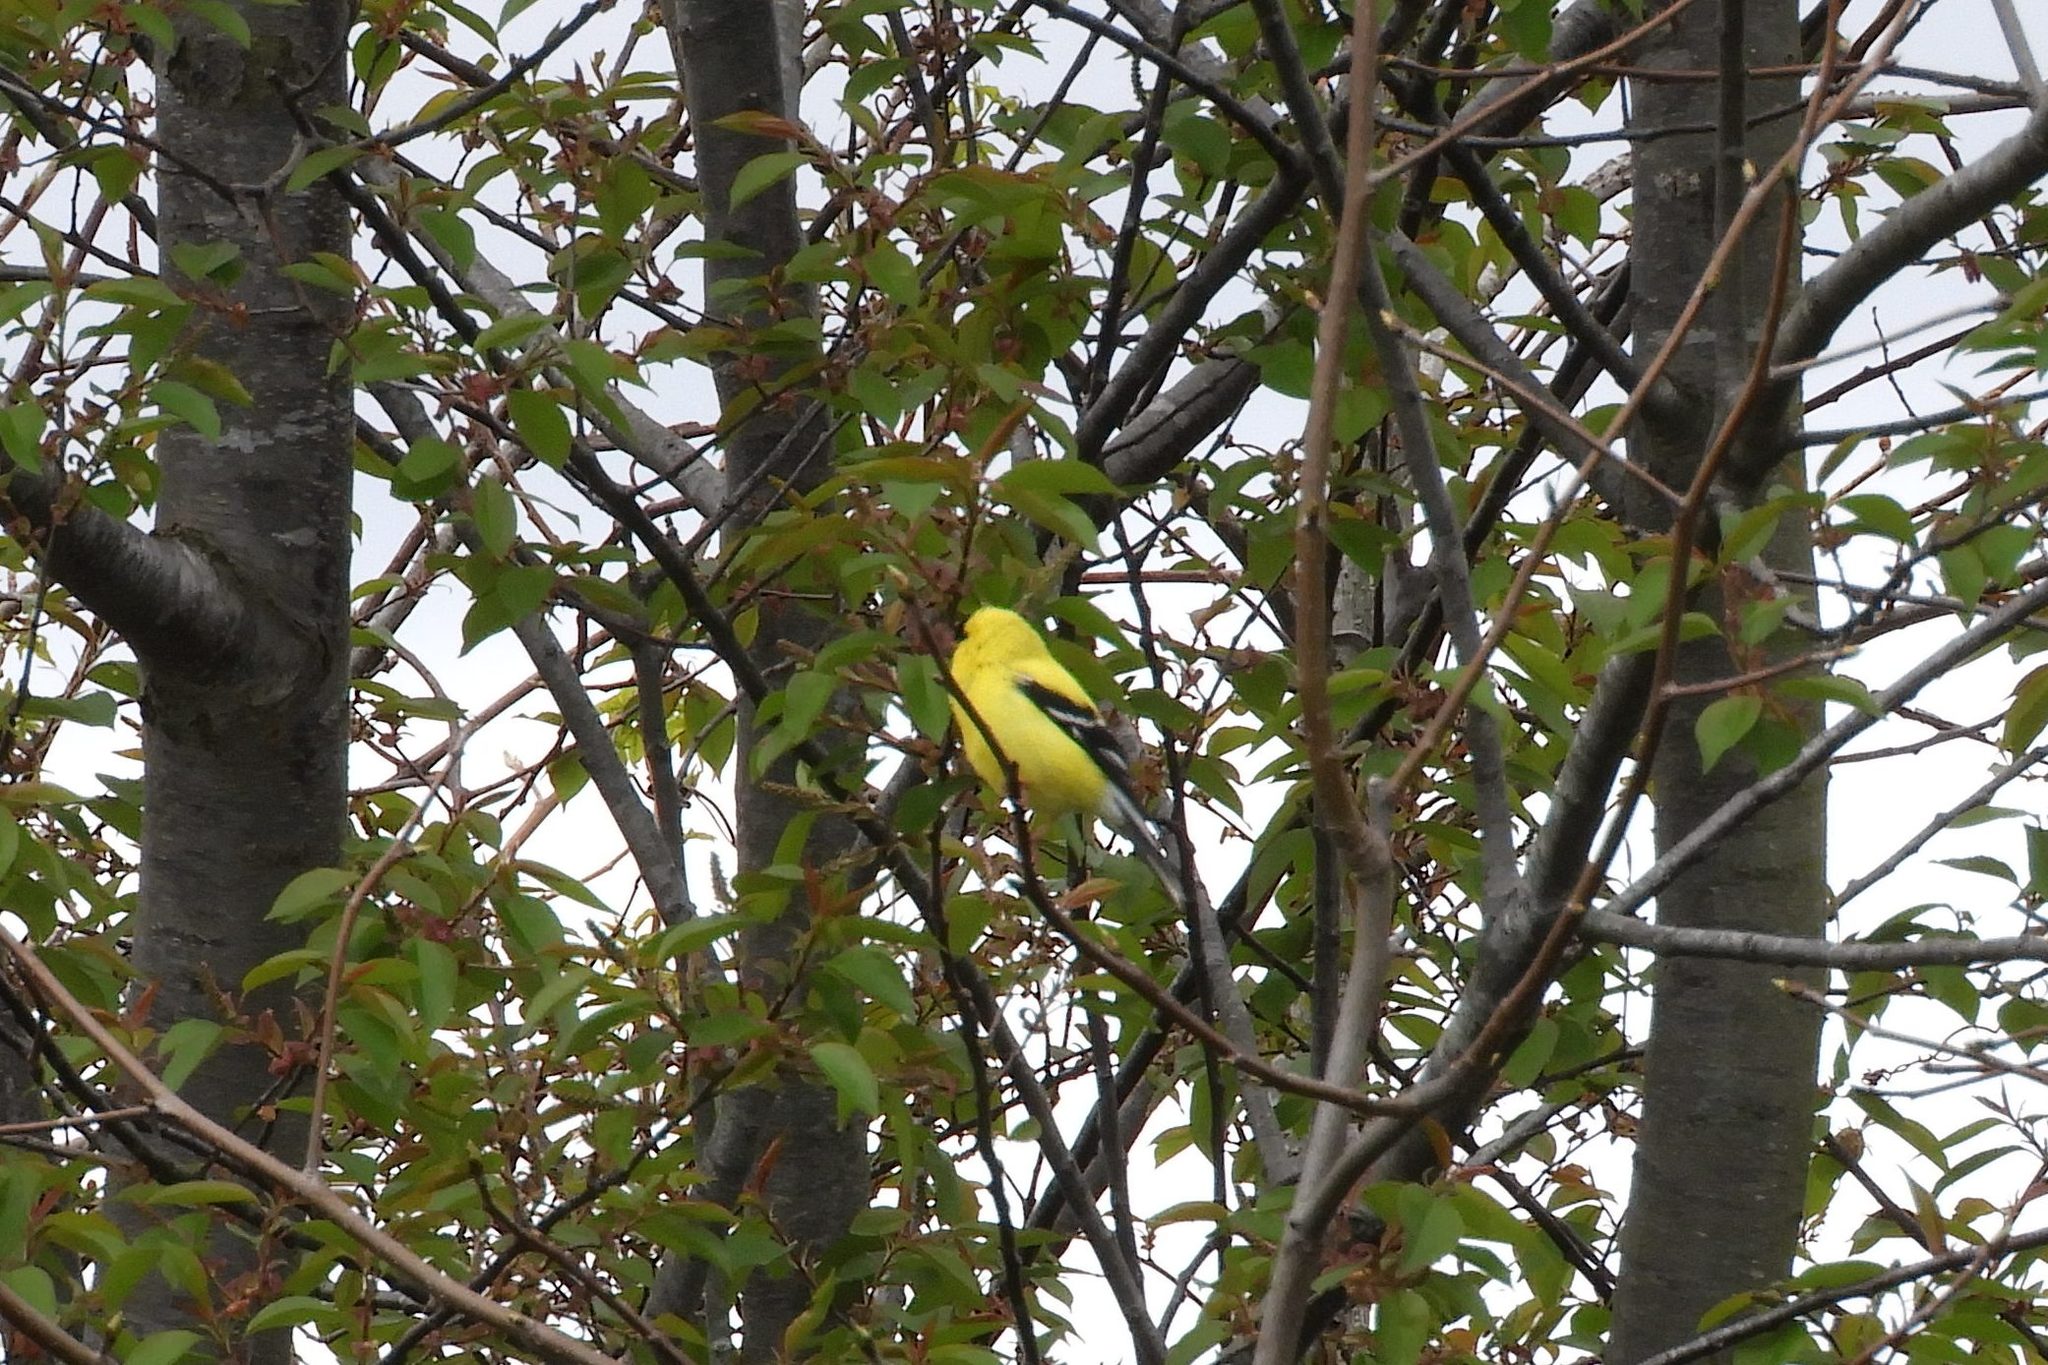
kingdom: Animalia
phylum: Chordata
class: Aves
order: Passeriformes
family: Fringillidae
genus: Spinus
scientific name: Spinus tristis
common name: American goldfinch
